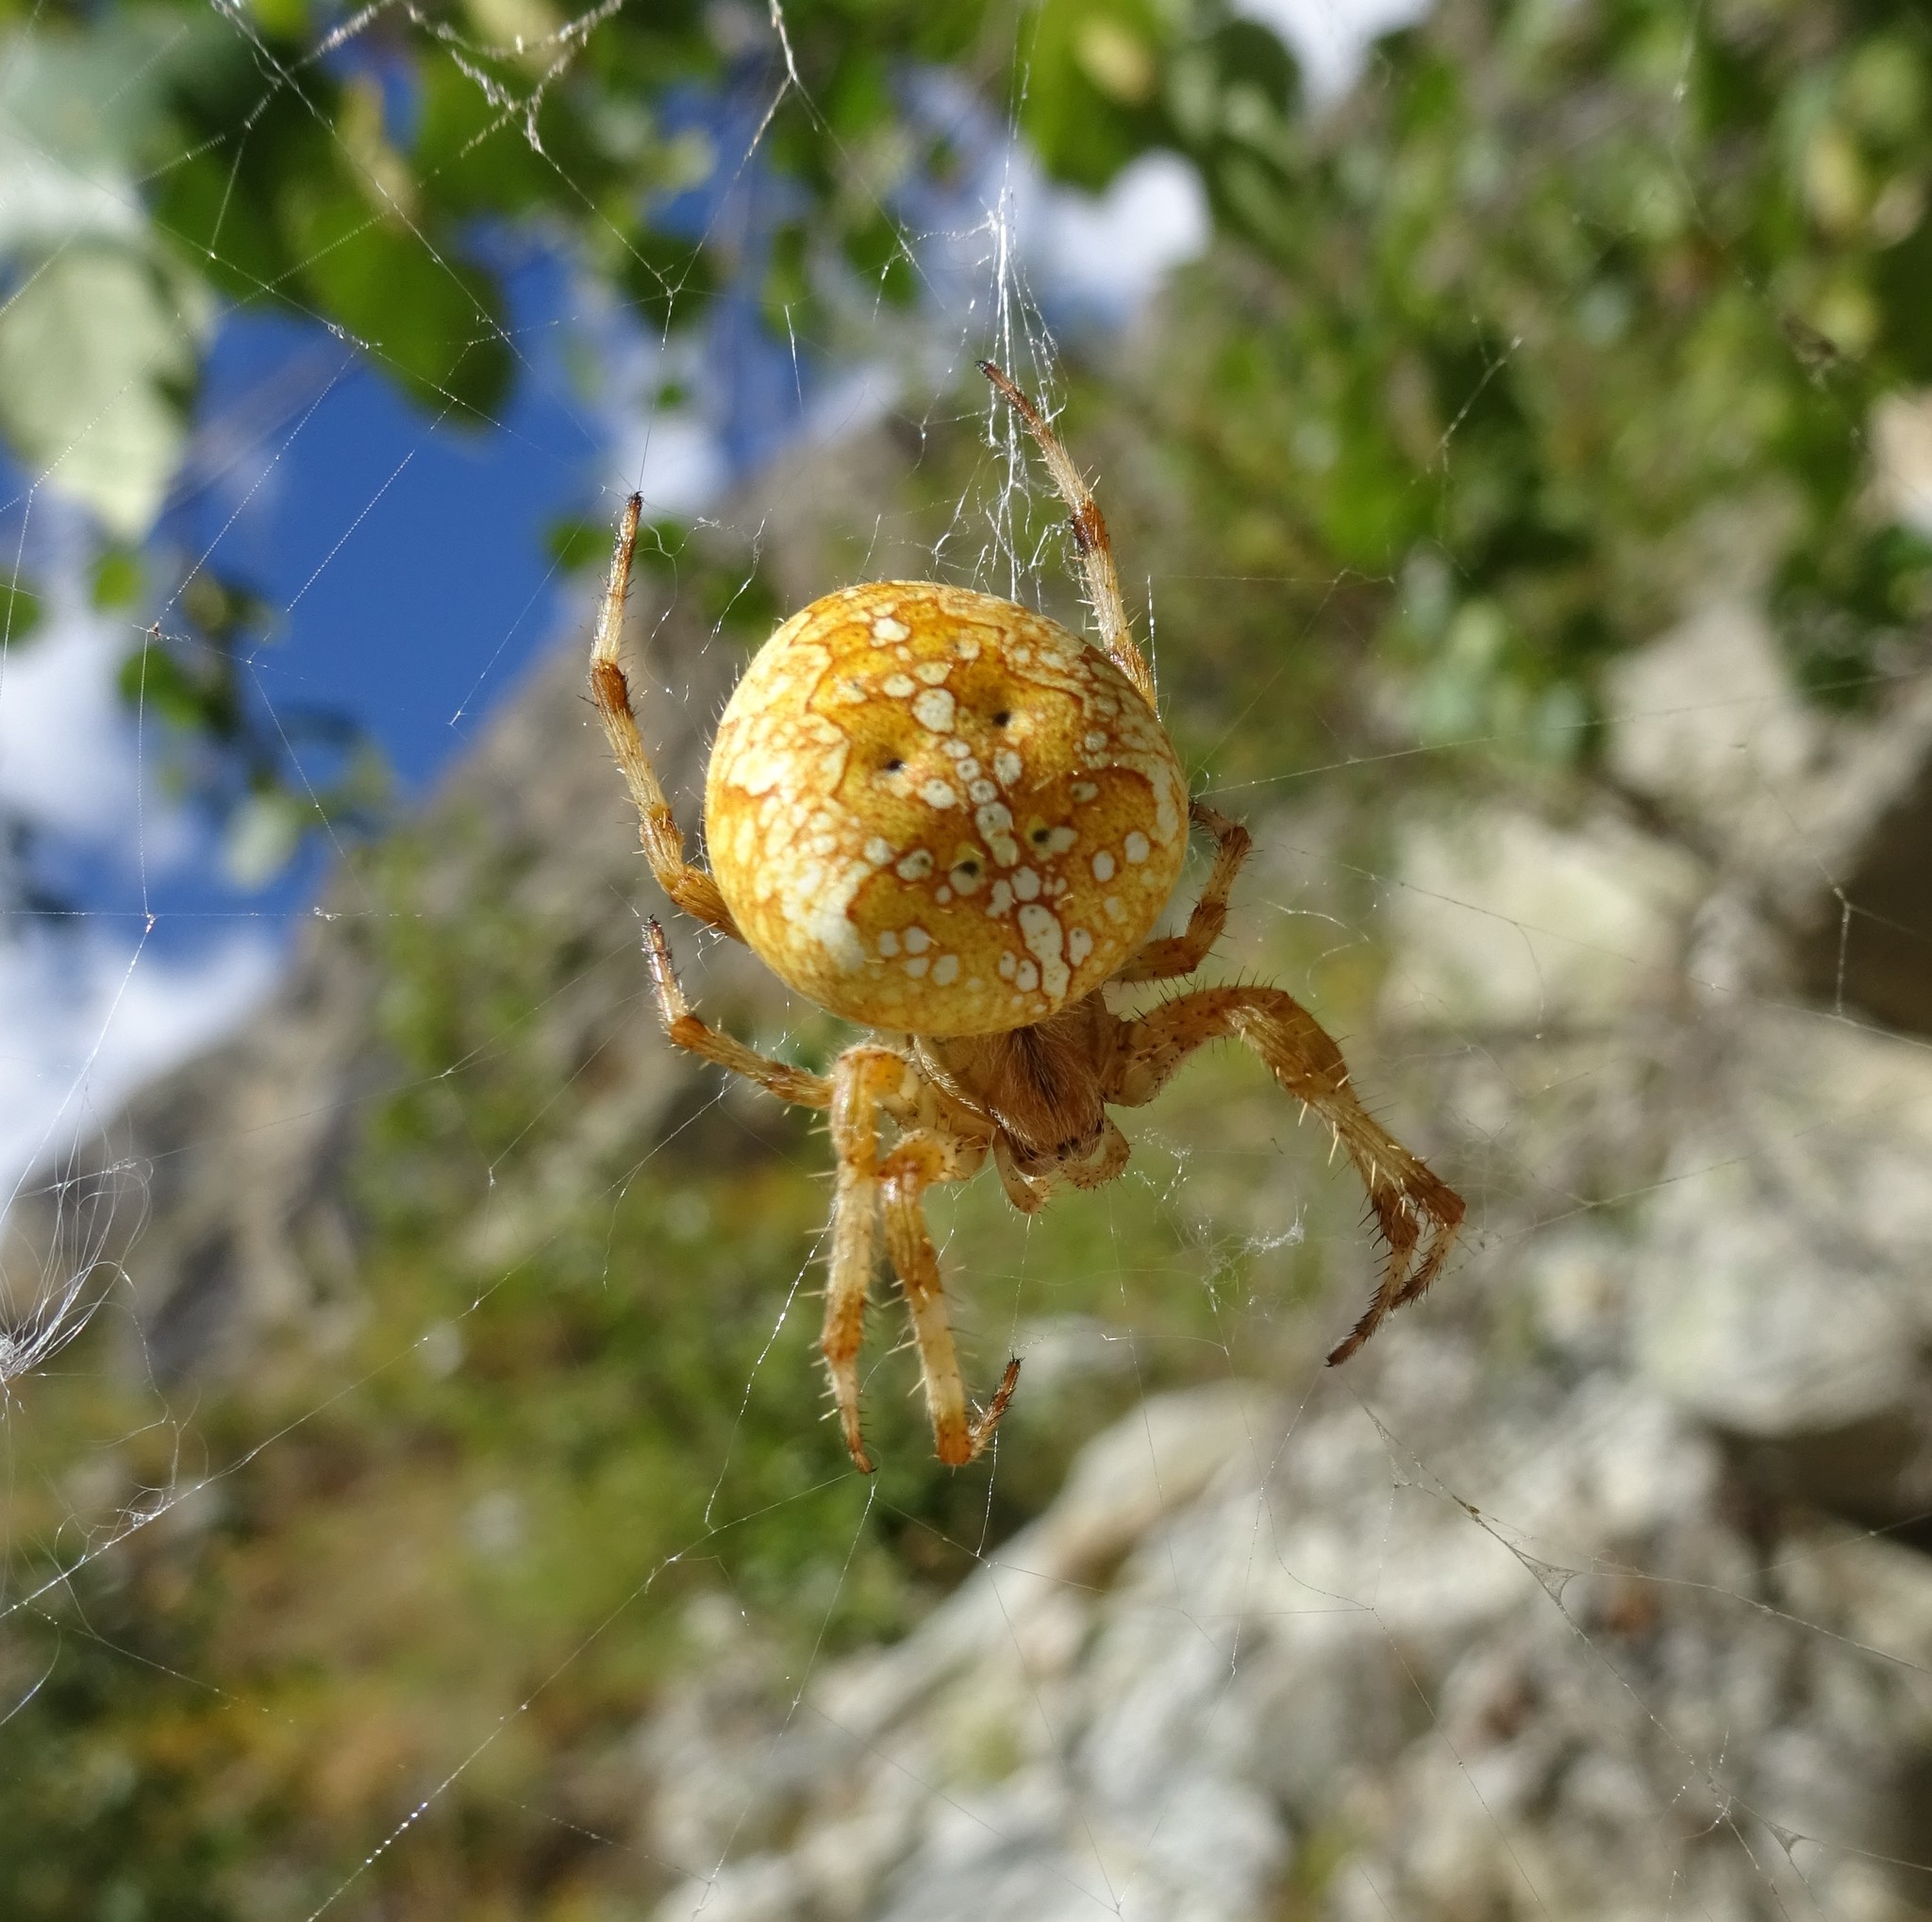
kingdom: Animalia
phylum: Arthropoda
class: Arachnida
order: Araneae
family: Araneidae
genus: Araneus
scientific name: Araneus diadematus
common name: Cross orbweaver
